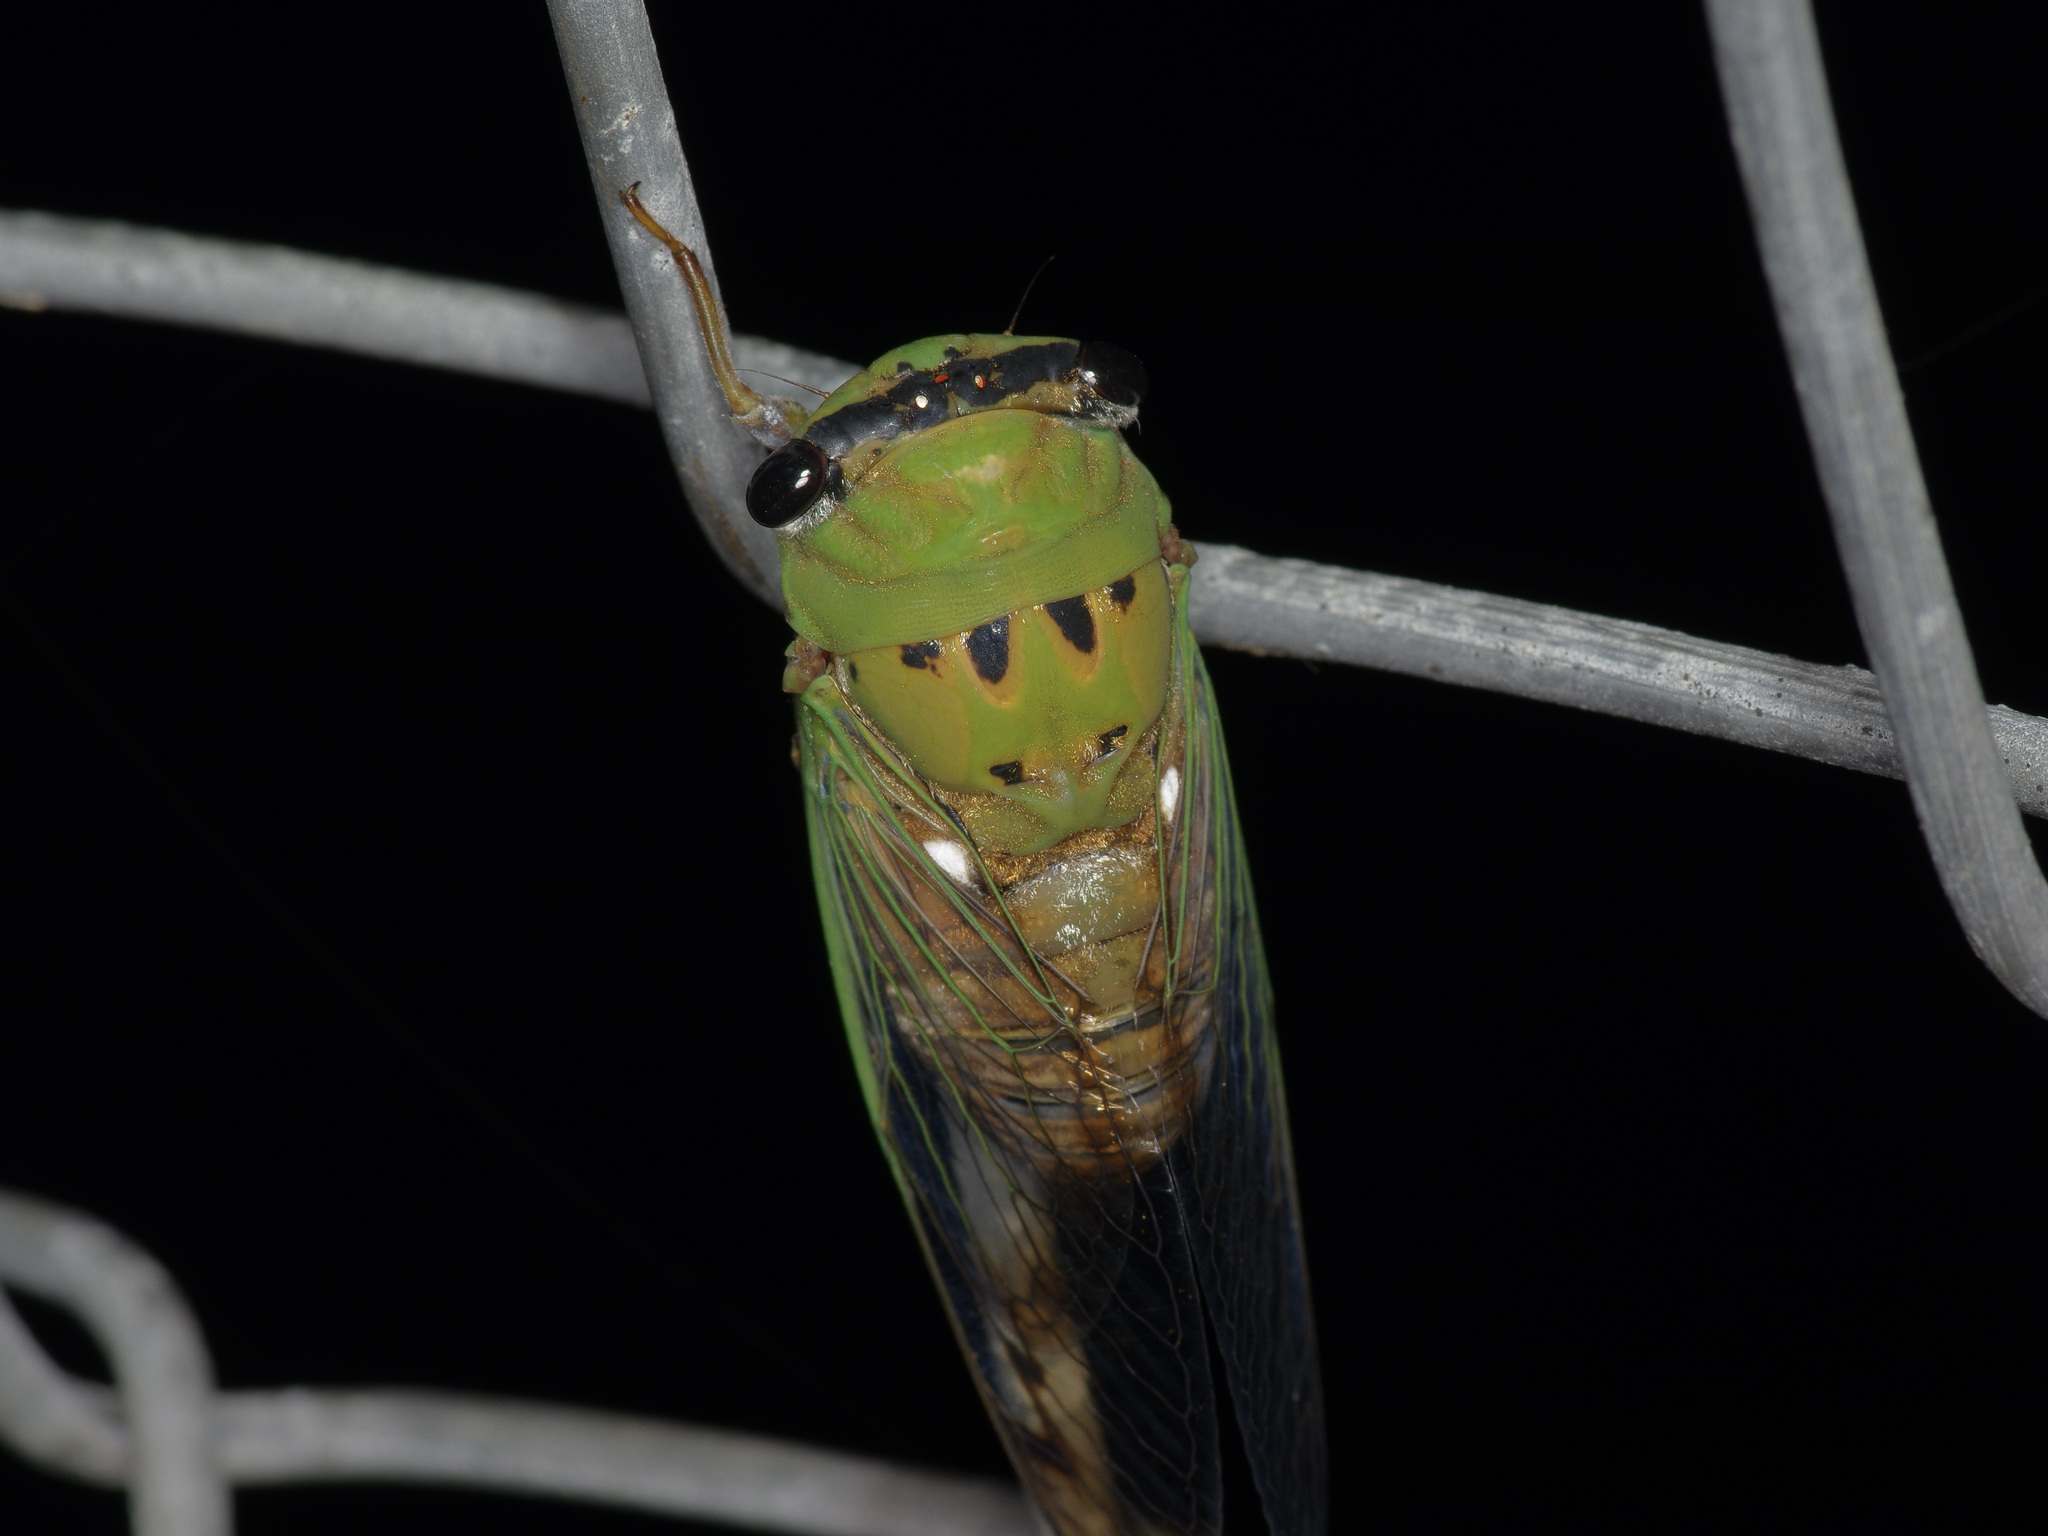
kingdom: Animalia
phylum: Arthropoda
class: Insecta
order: Hemiptera
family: Cicadidae
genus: Neotibicen
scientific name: Neotibicen superbus
